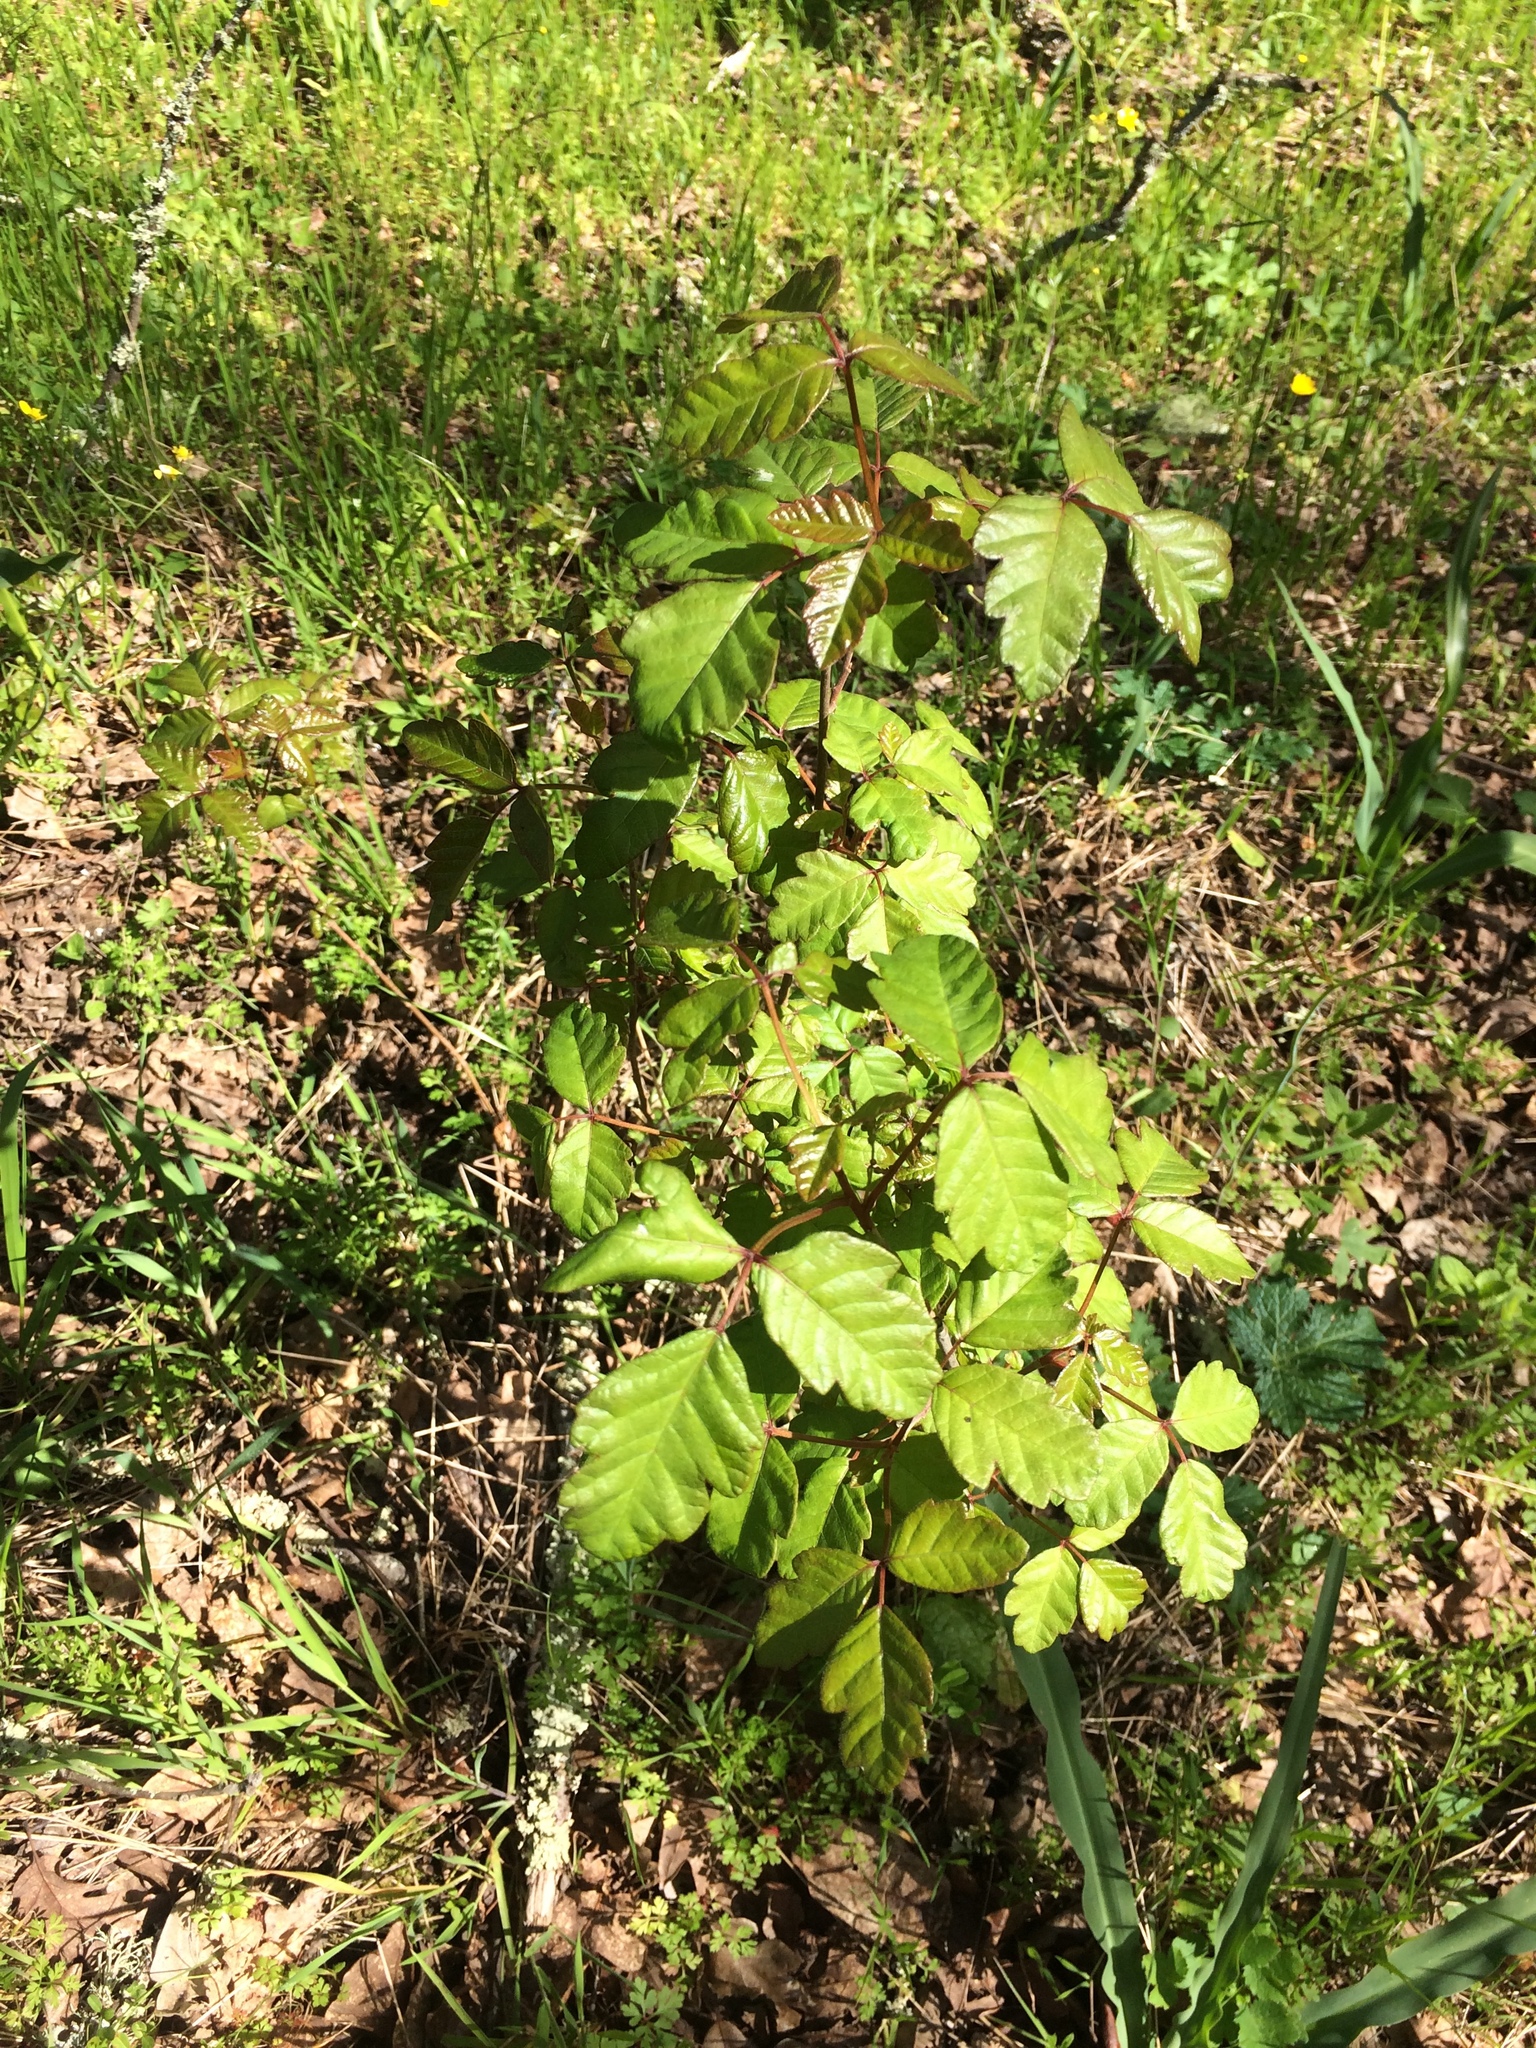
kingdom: Plantae
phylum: Tracheophyta
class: Magnoliopsida
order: Sapindales
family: Anacardiaceae
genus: Toxicodendron
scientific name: Toxicodendron diversilobum
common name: Pacific poison-oak
